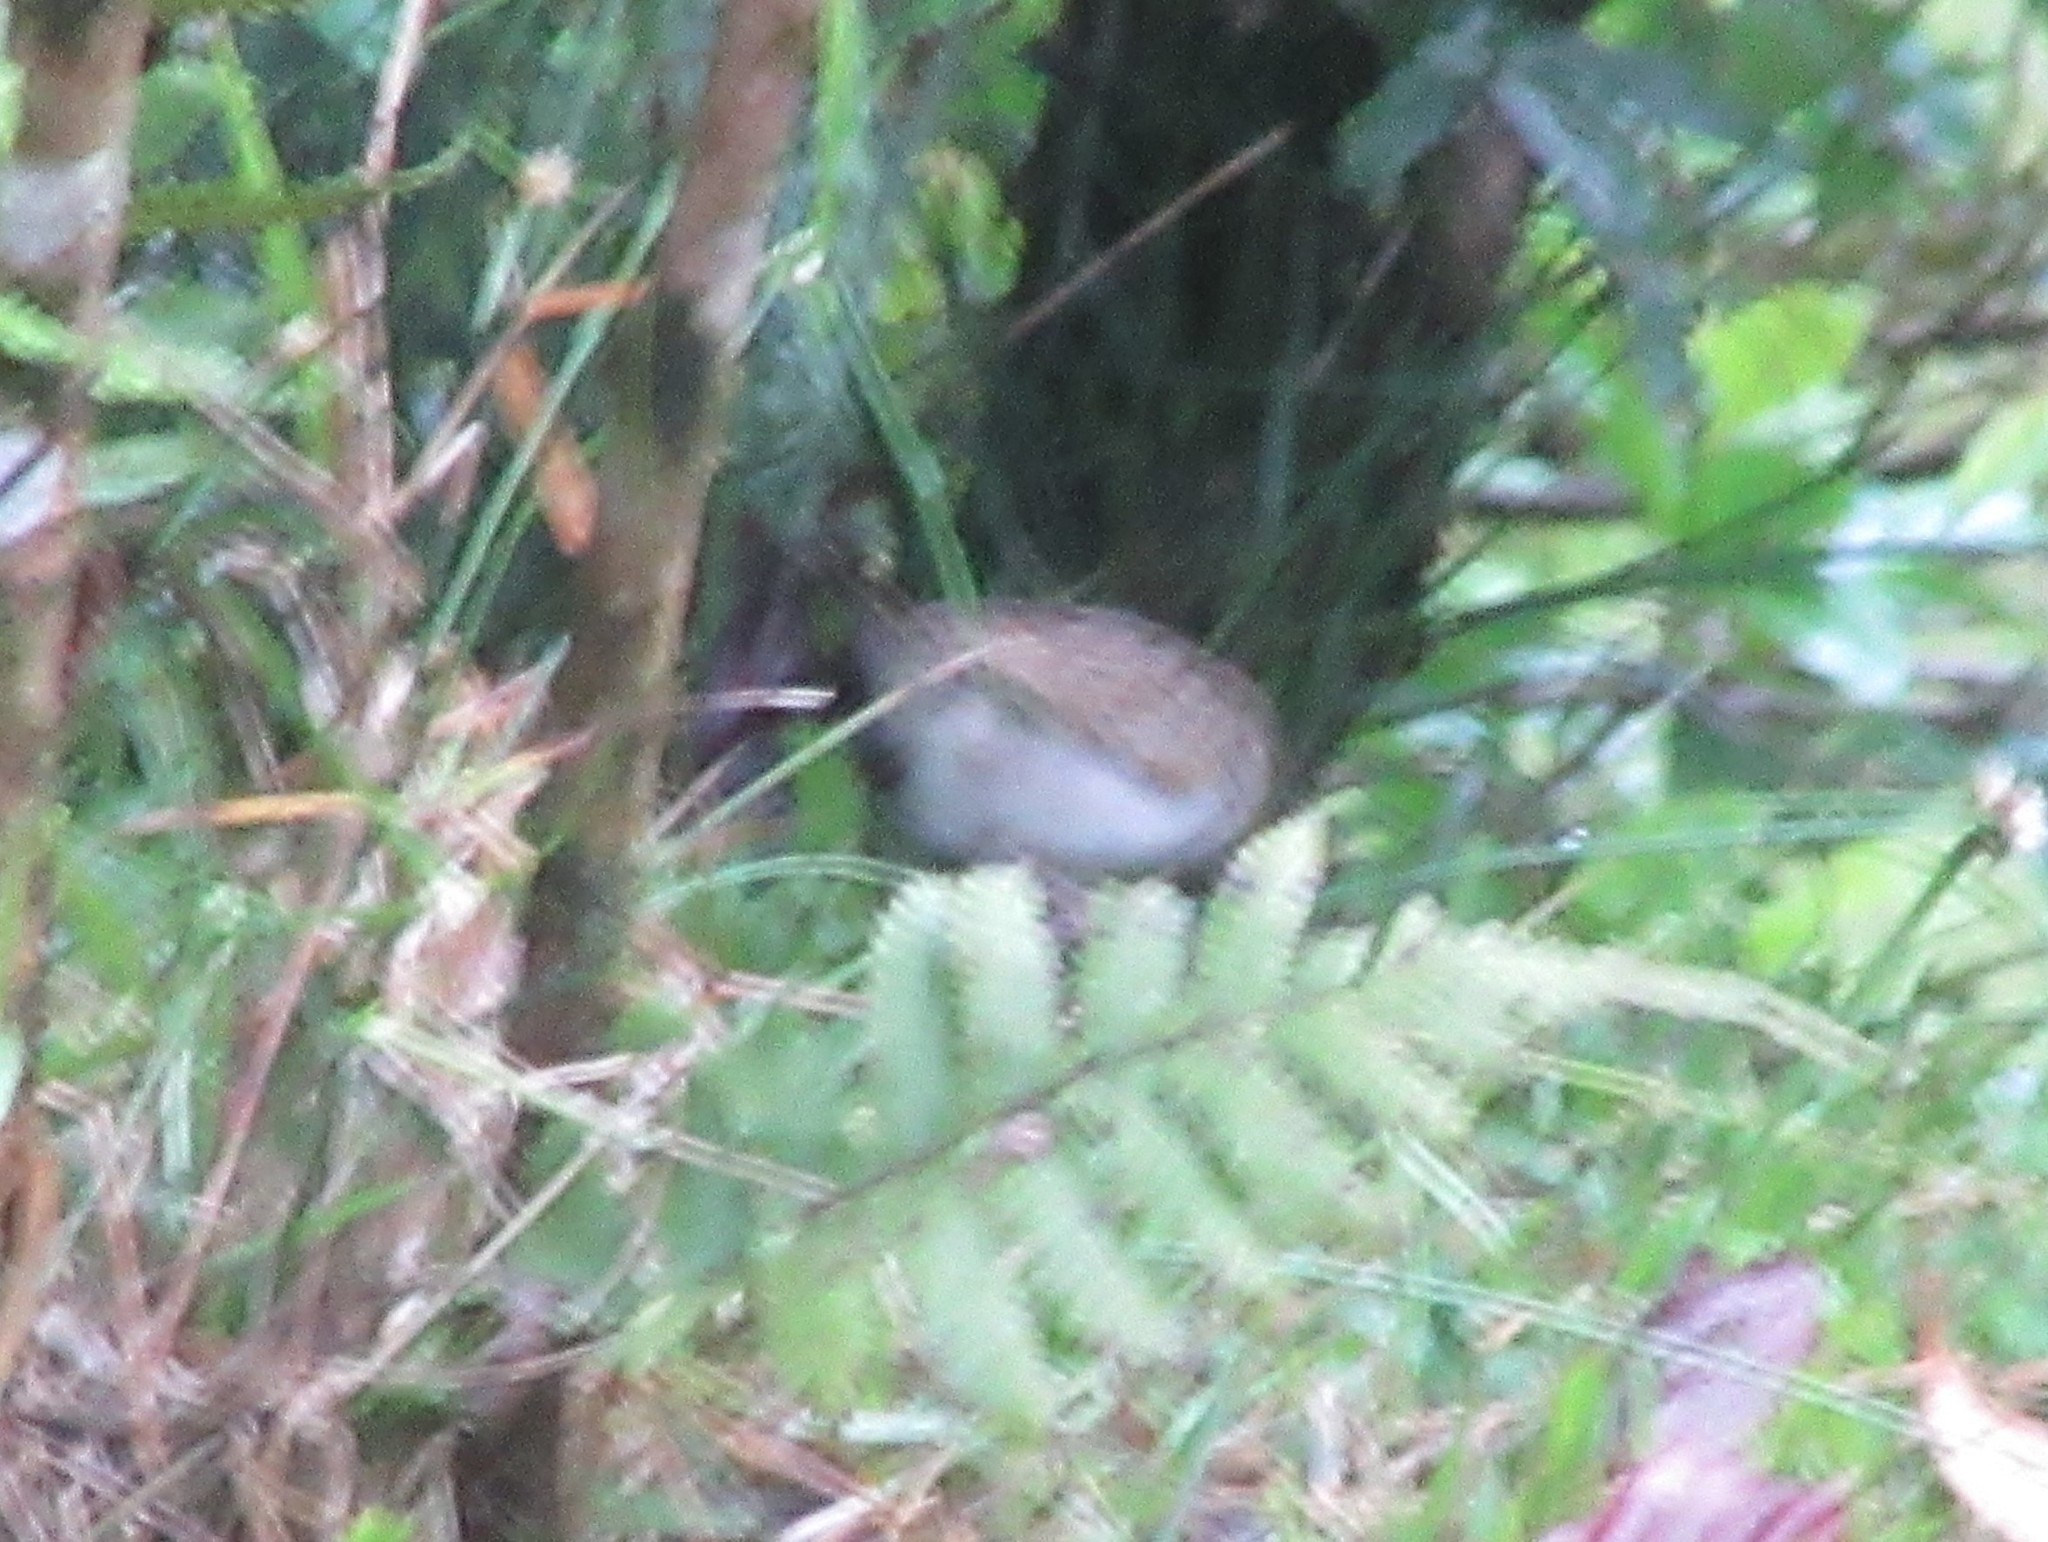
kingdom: Animalia
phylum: Chordata
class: Aves
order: Passeriformes
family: Passerellidae
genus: Ammodramus
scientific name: Ammodramus aurifrons
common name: Yellow-browed sparrow
